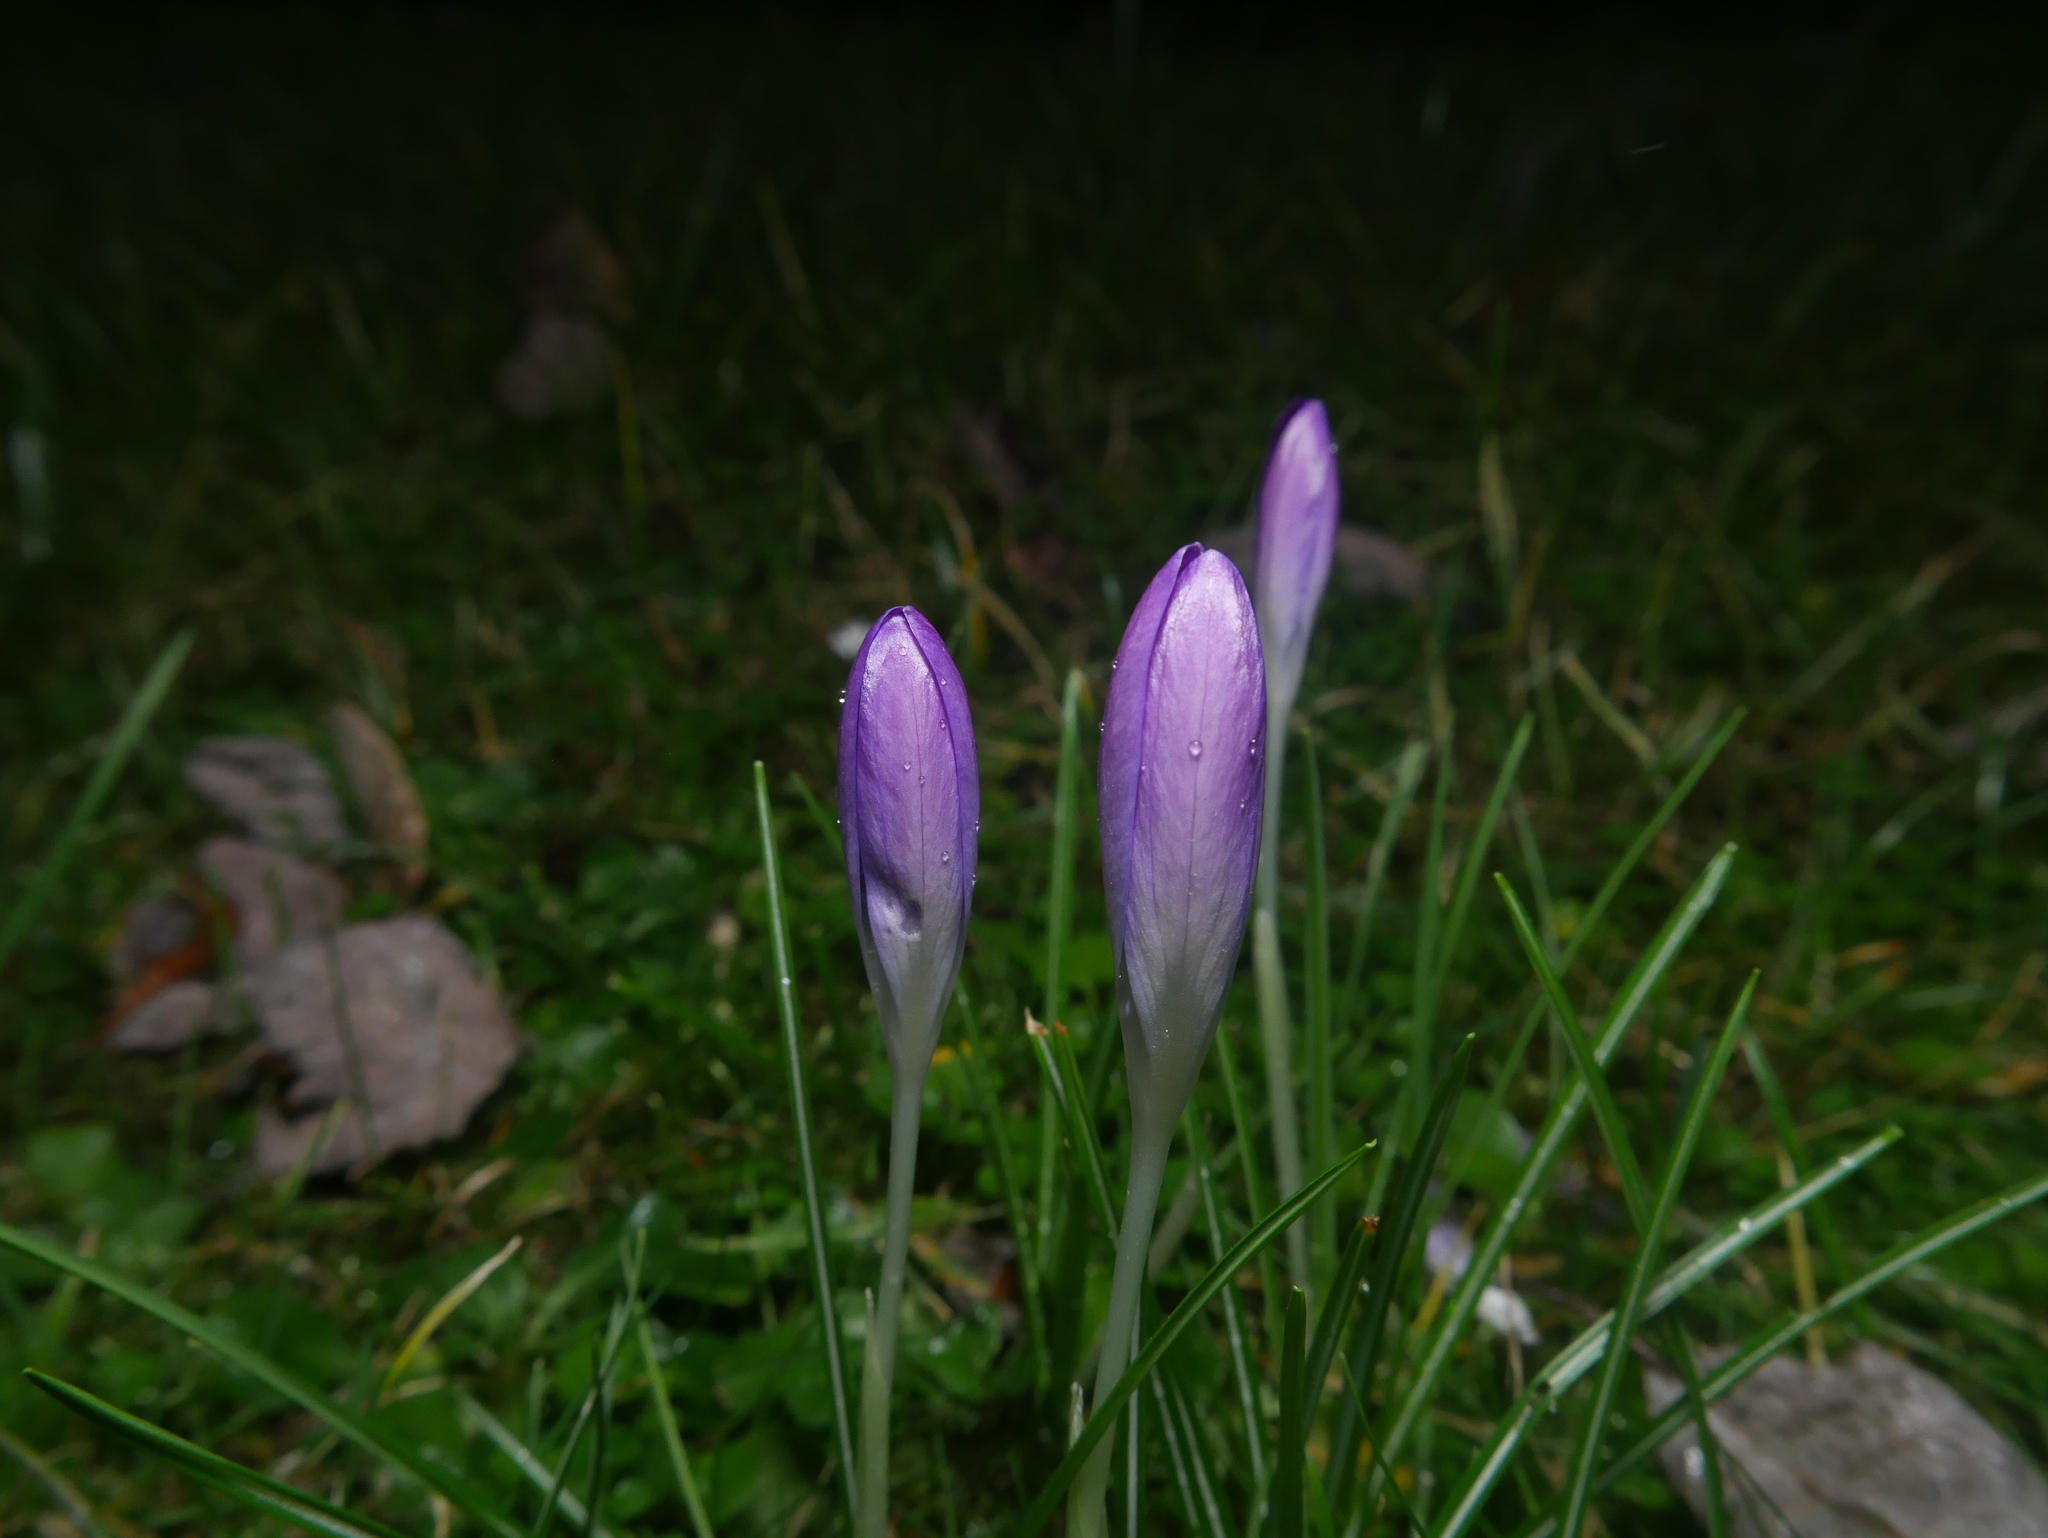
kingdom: Plantae
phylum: Tracheophyta
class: Liliopsida
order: Asparagales
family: Iridaceae
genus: Crocus
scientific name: Crocus tommasinianus
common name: Early crocus
